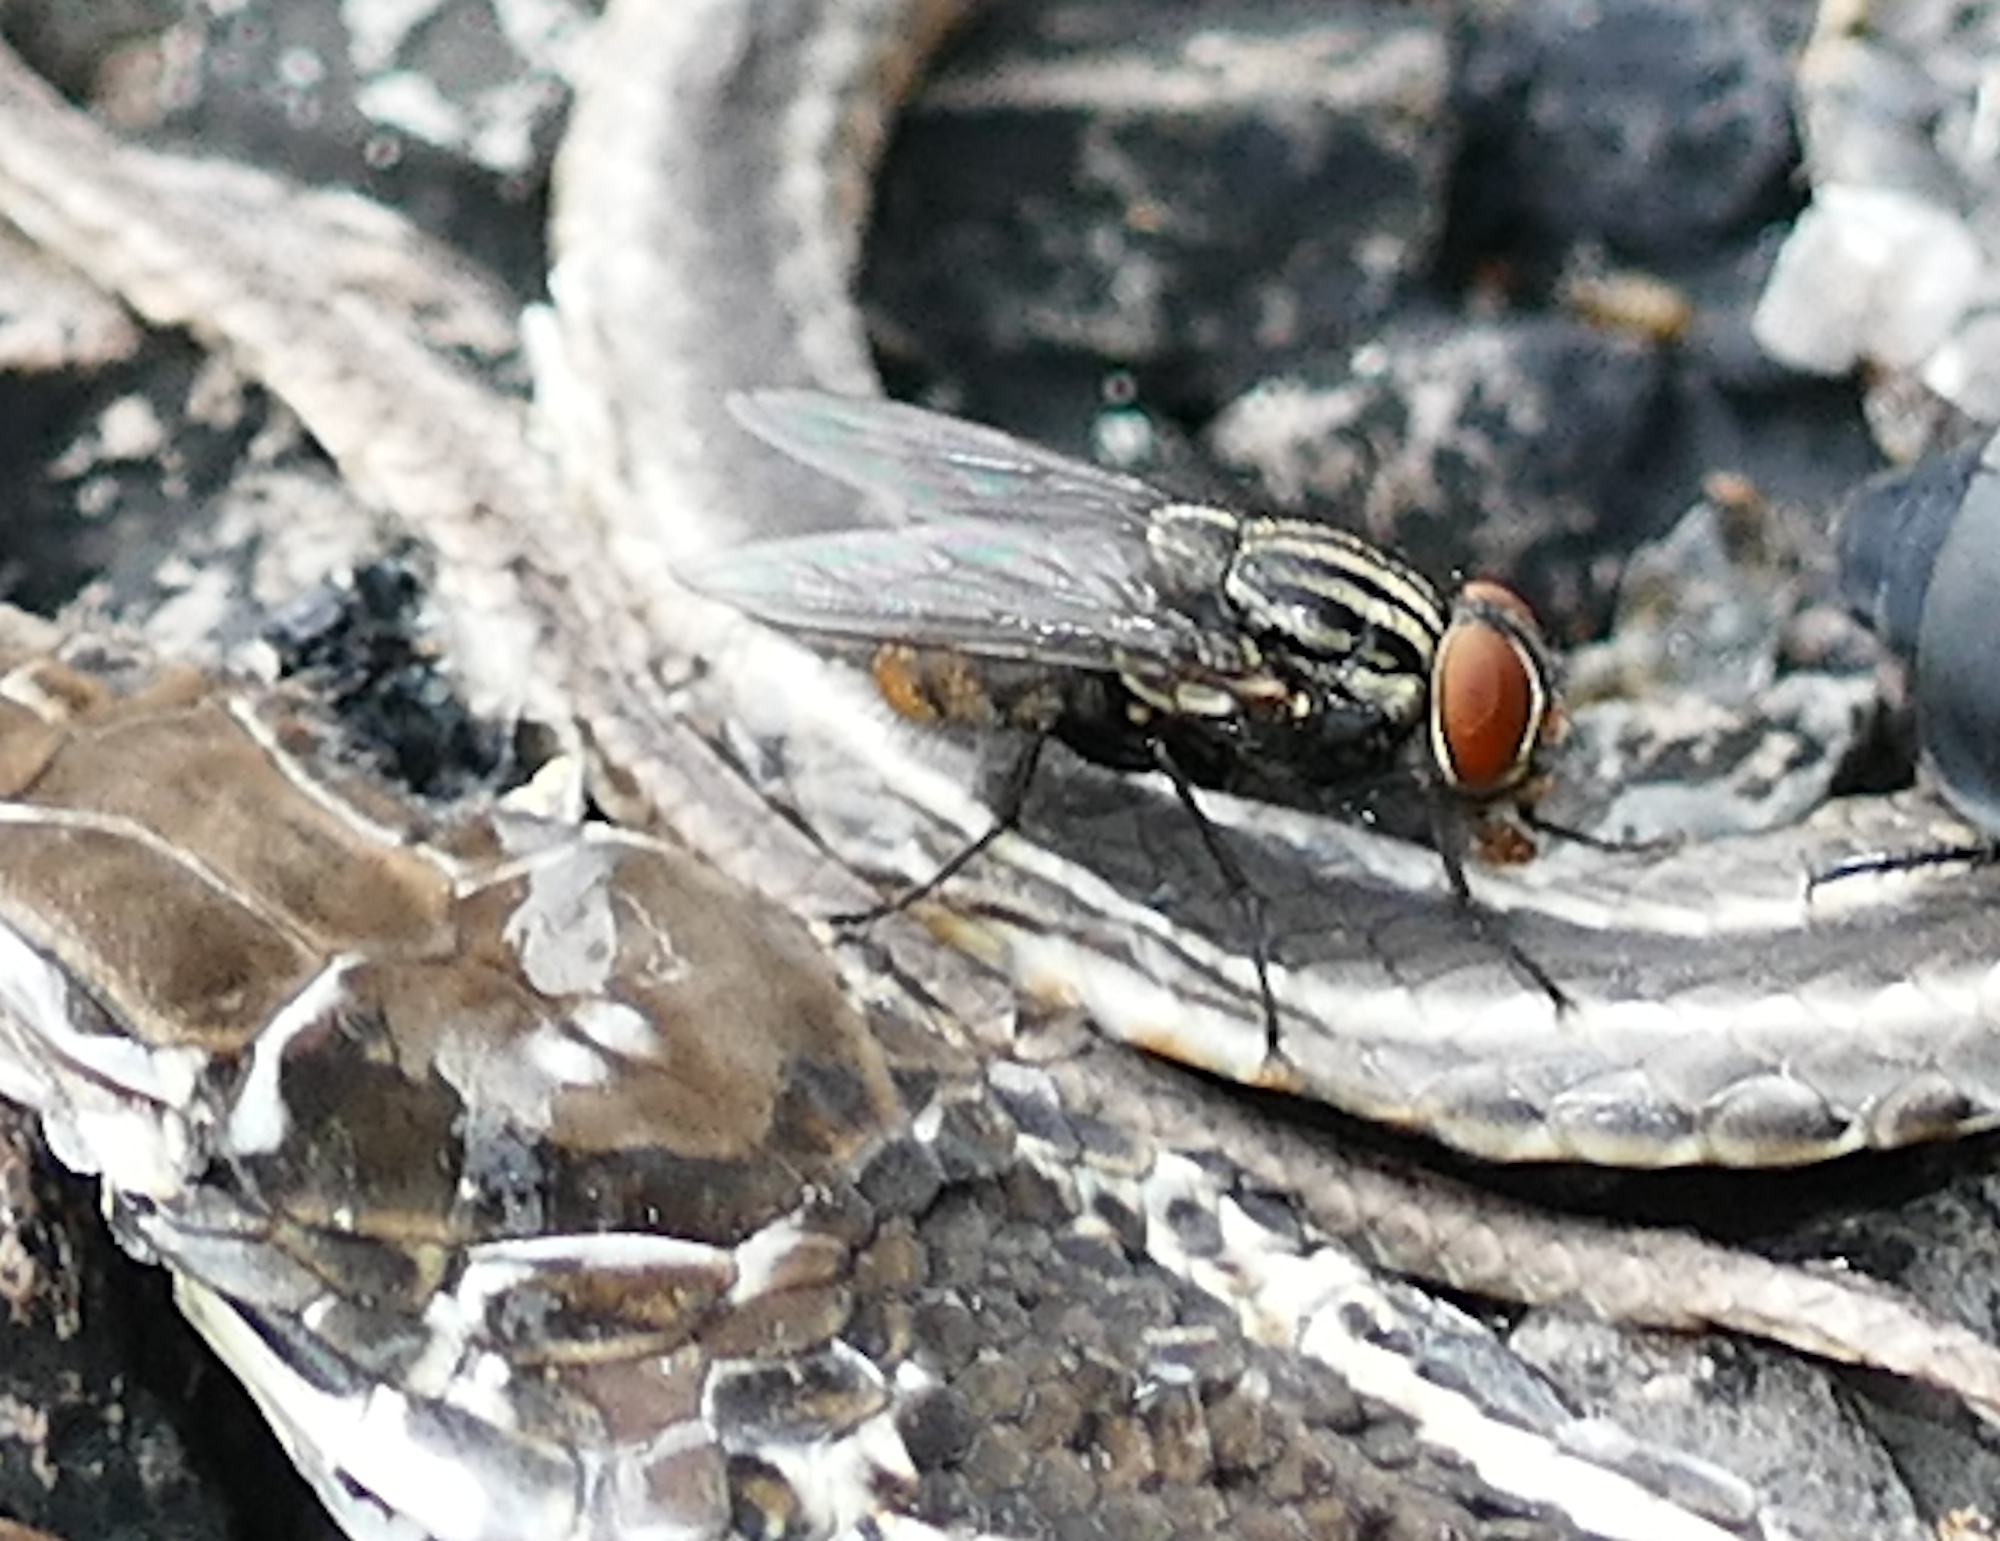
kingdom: Animalia
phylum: Arthropoda
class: Insecta
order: Diptera
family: Sarcophagidae
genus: Sarcophaga
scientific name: Sarcophaga
